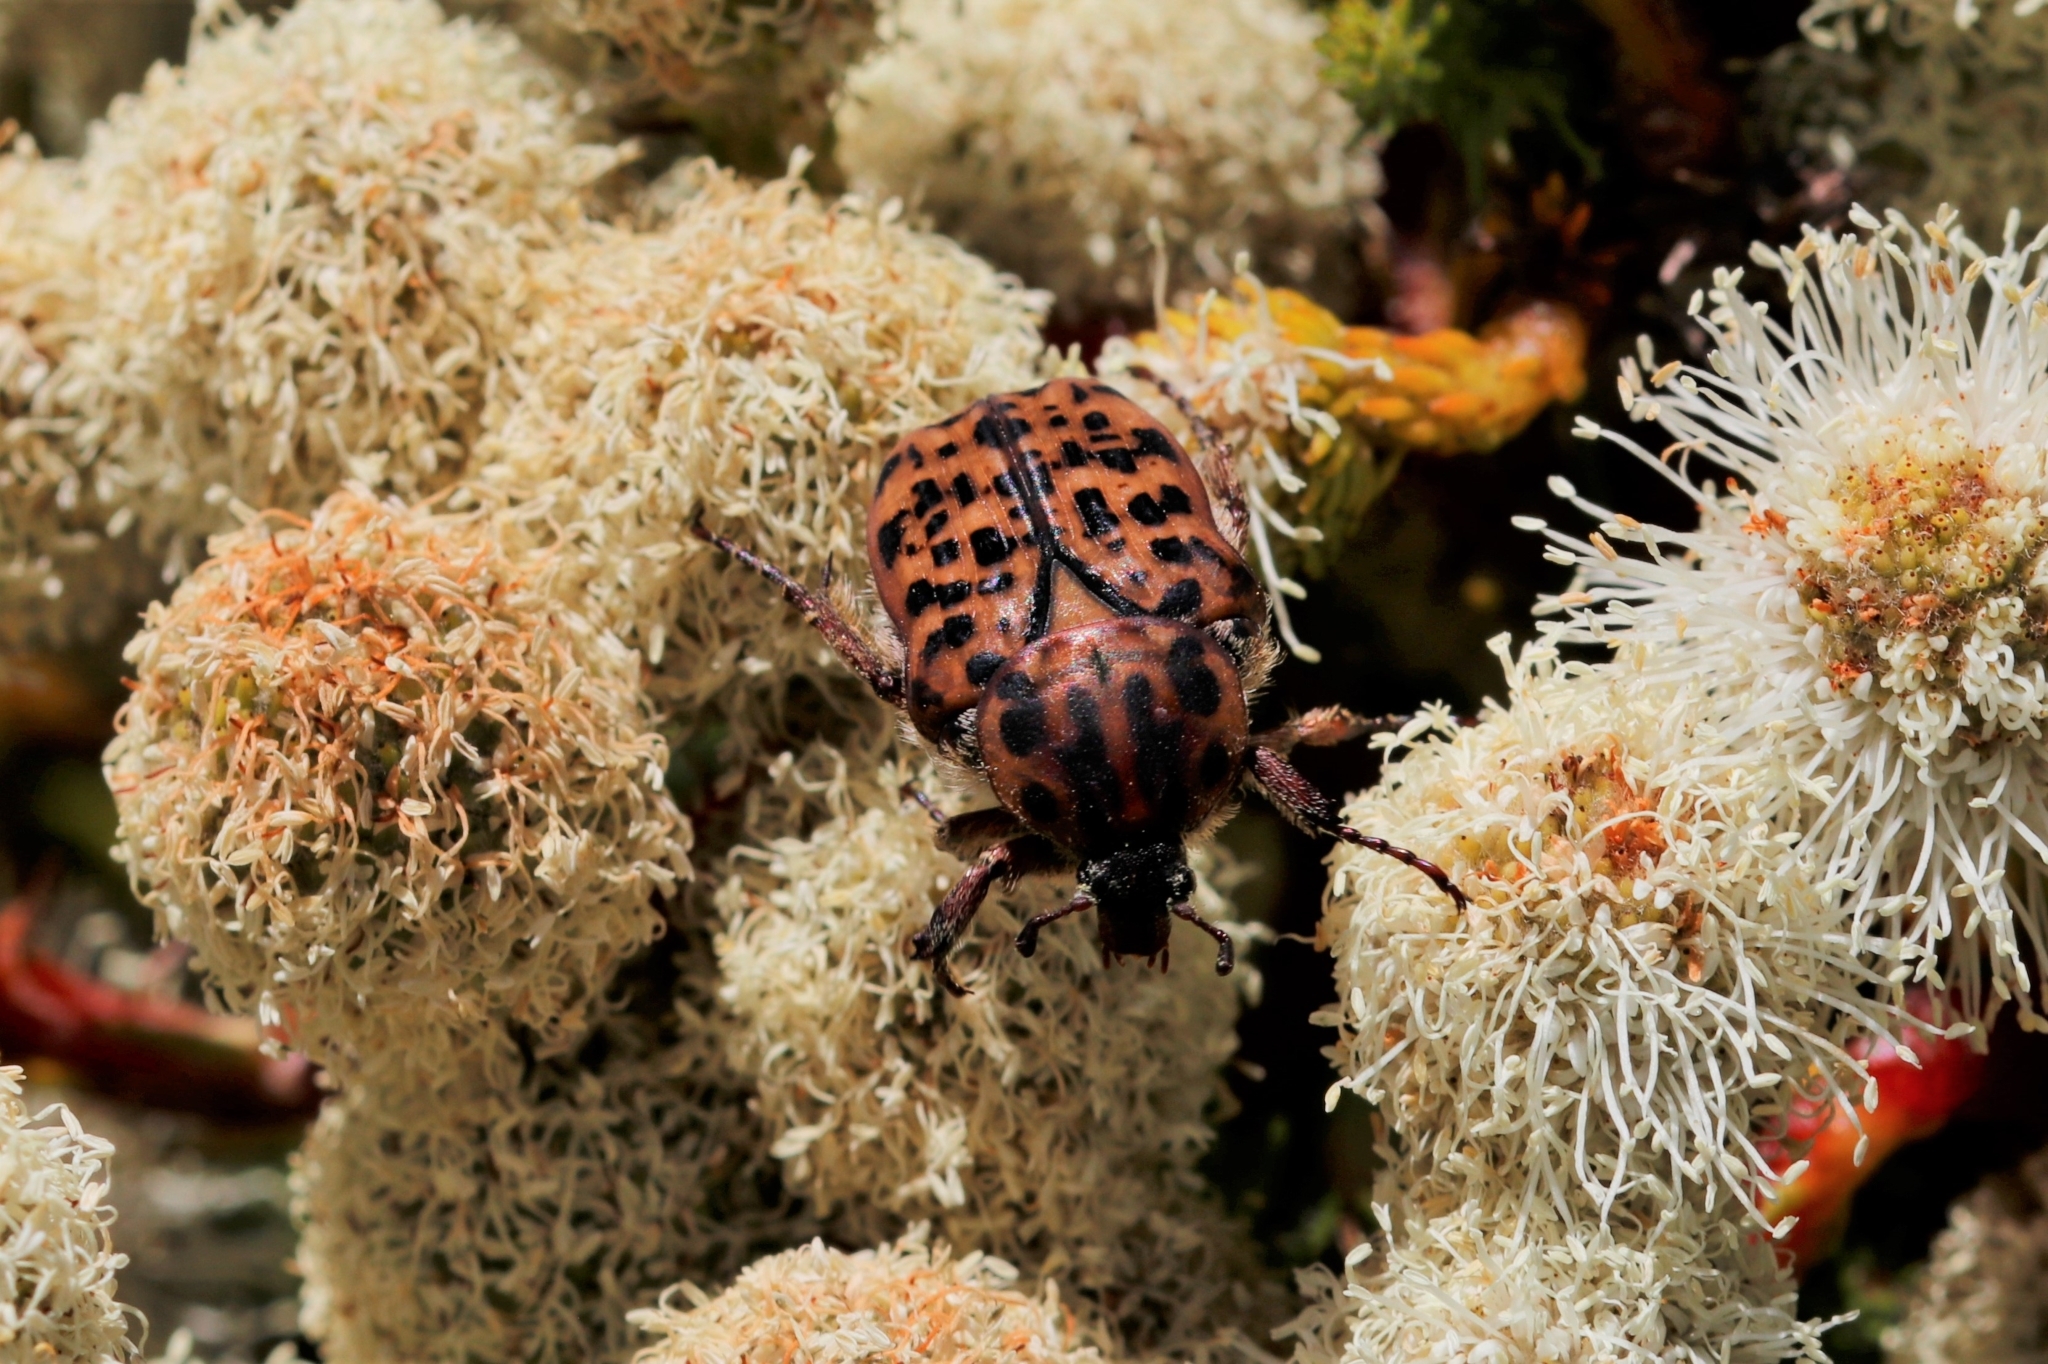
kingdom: Animalia
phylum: Arthropoda
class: Insecta
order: Coleoptera
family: Scarabaeidae
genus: Atrichelaphinis
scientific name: Atrichelaphinis tigrina
